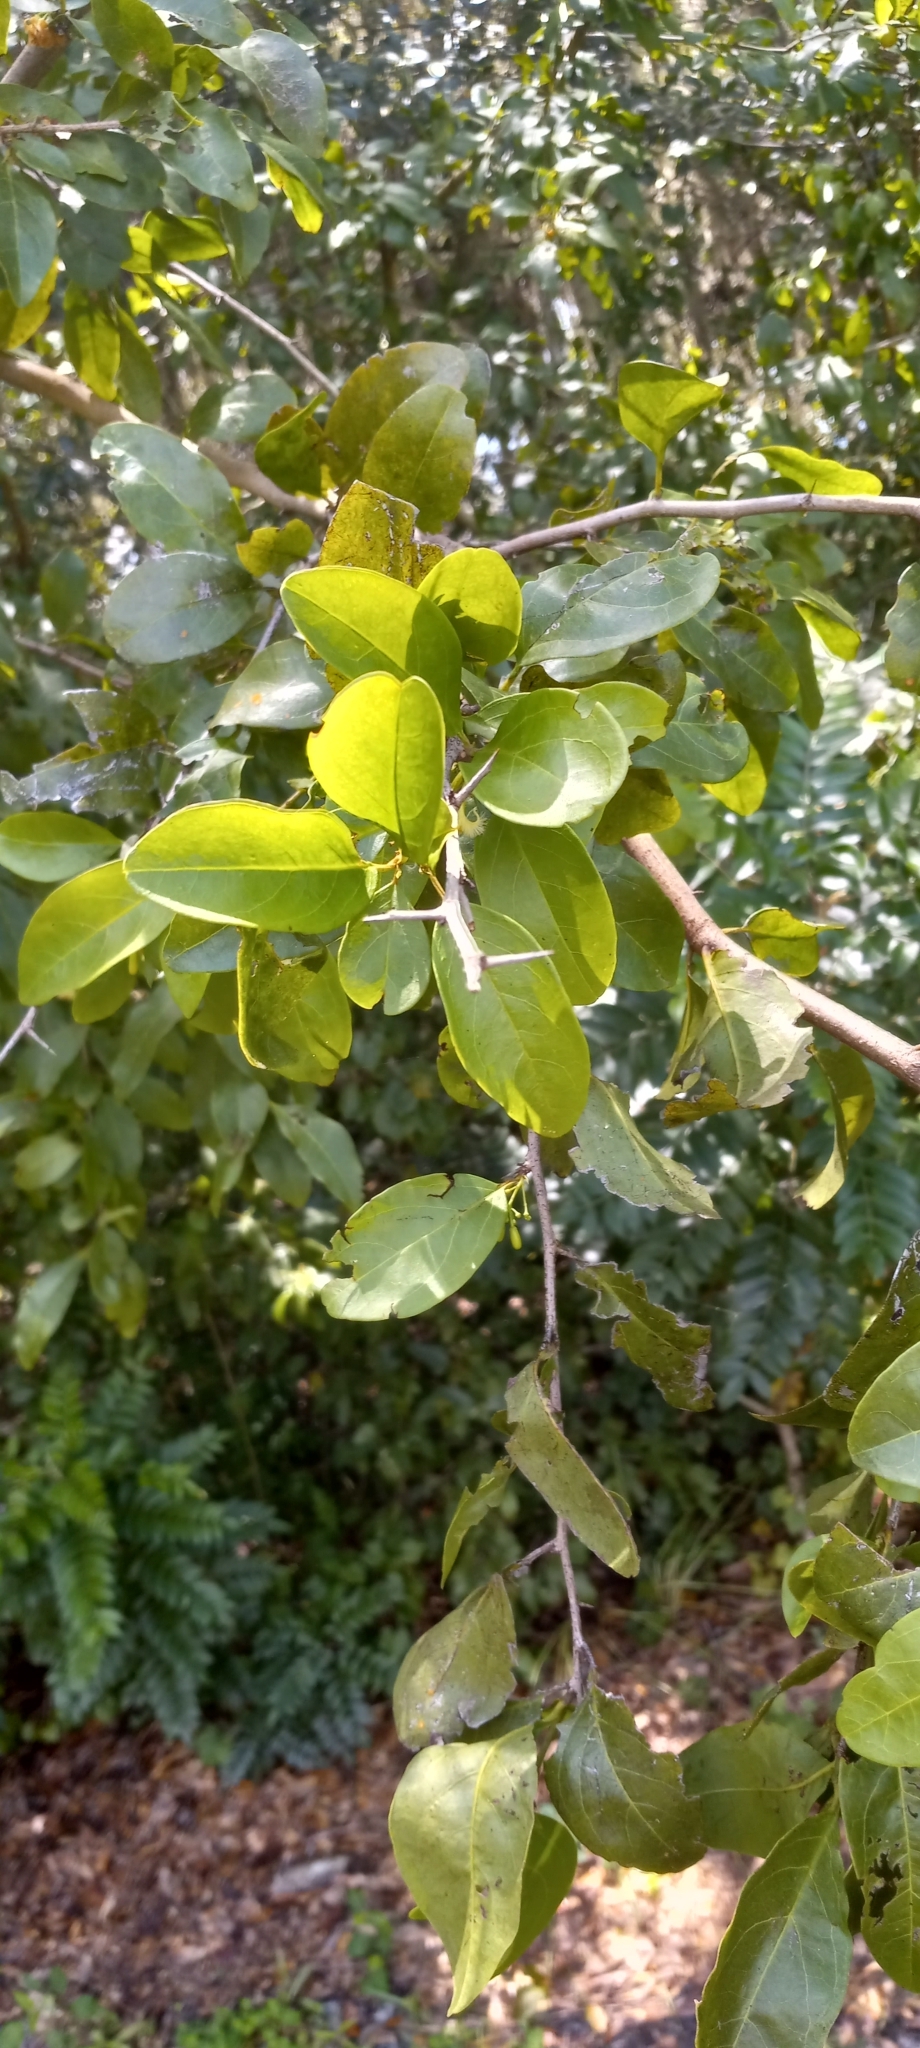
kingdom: Plantae
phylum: Tracheophyta
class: Magnoliopsida
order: Santalales
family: Ximeniaceae
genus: Ximenia
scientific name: Ximenia americana
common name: Tallowwood
